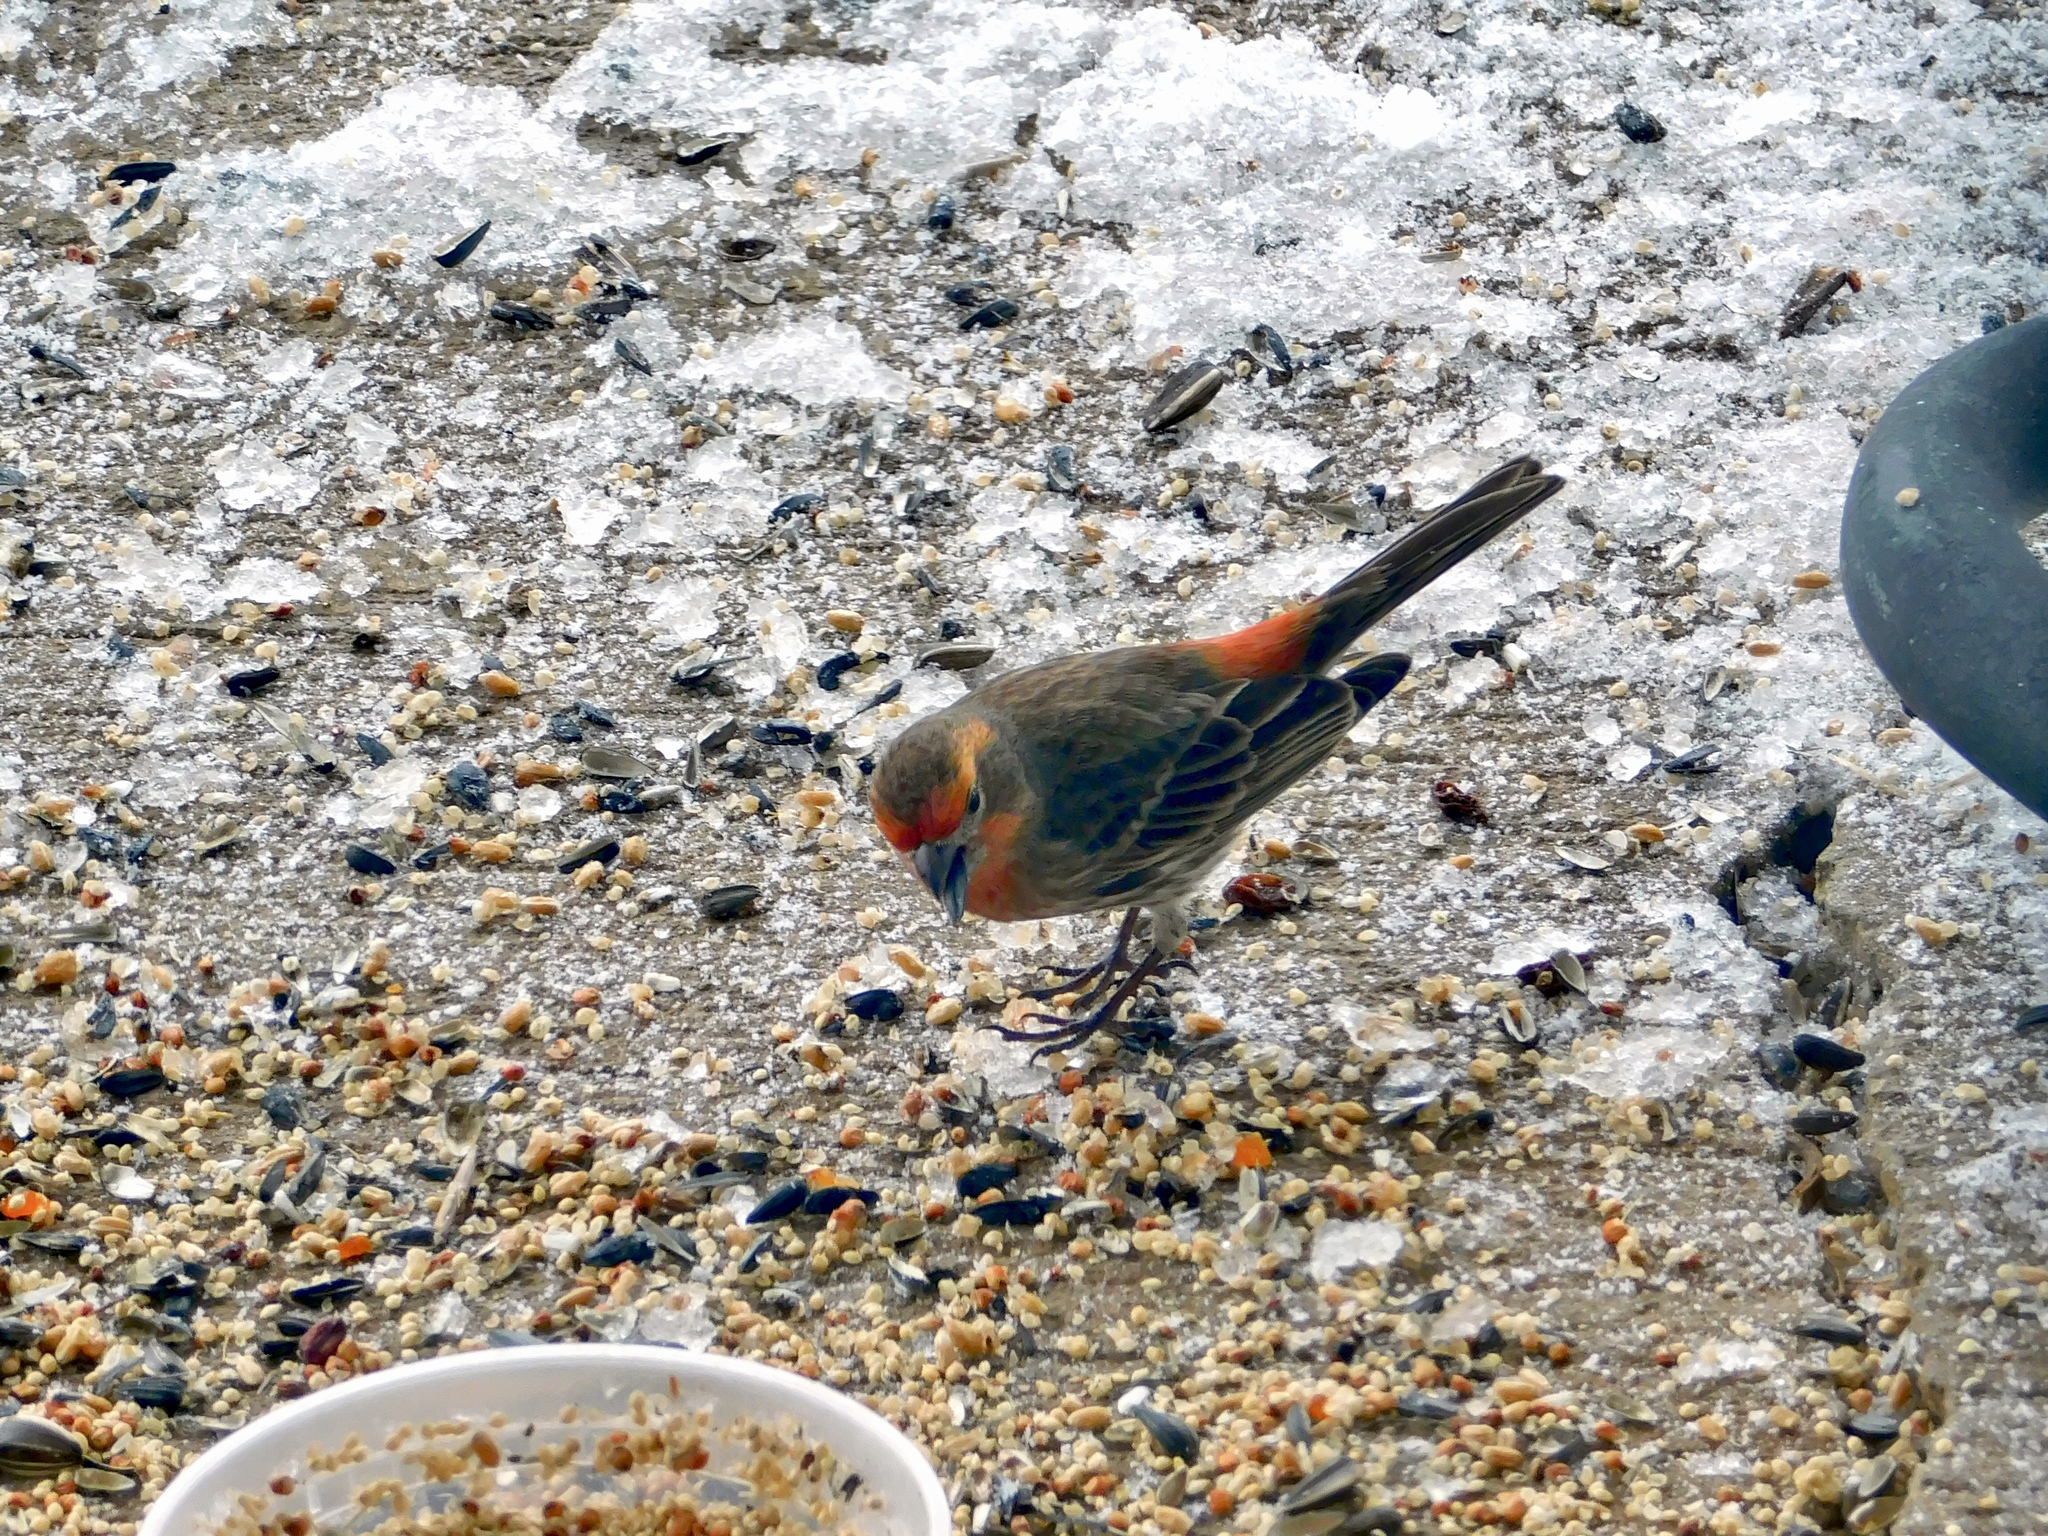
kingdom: Animalia
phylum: Chordata
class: Aves
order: Passeriformes
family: Fringillidae
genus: Haemorhous
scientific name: Haemorhous mexicanus
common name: House finch
